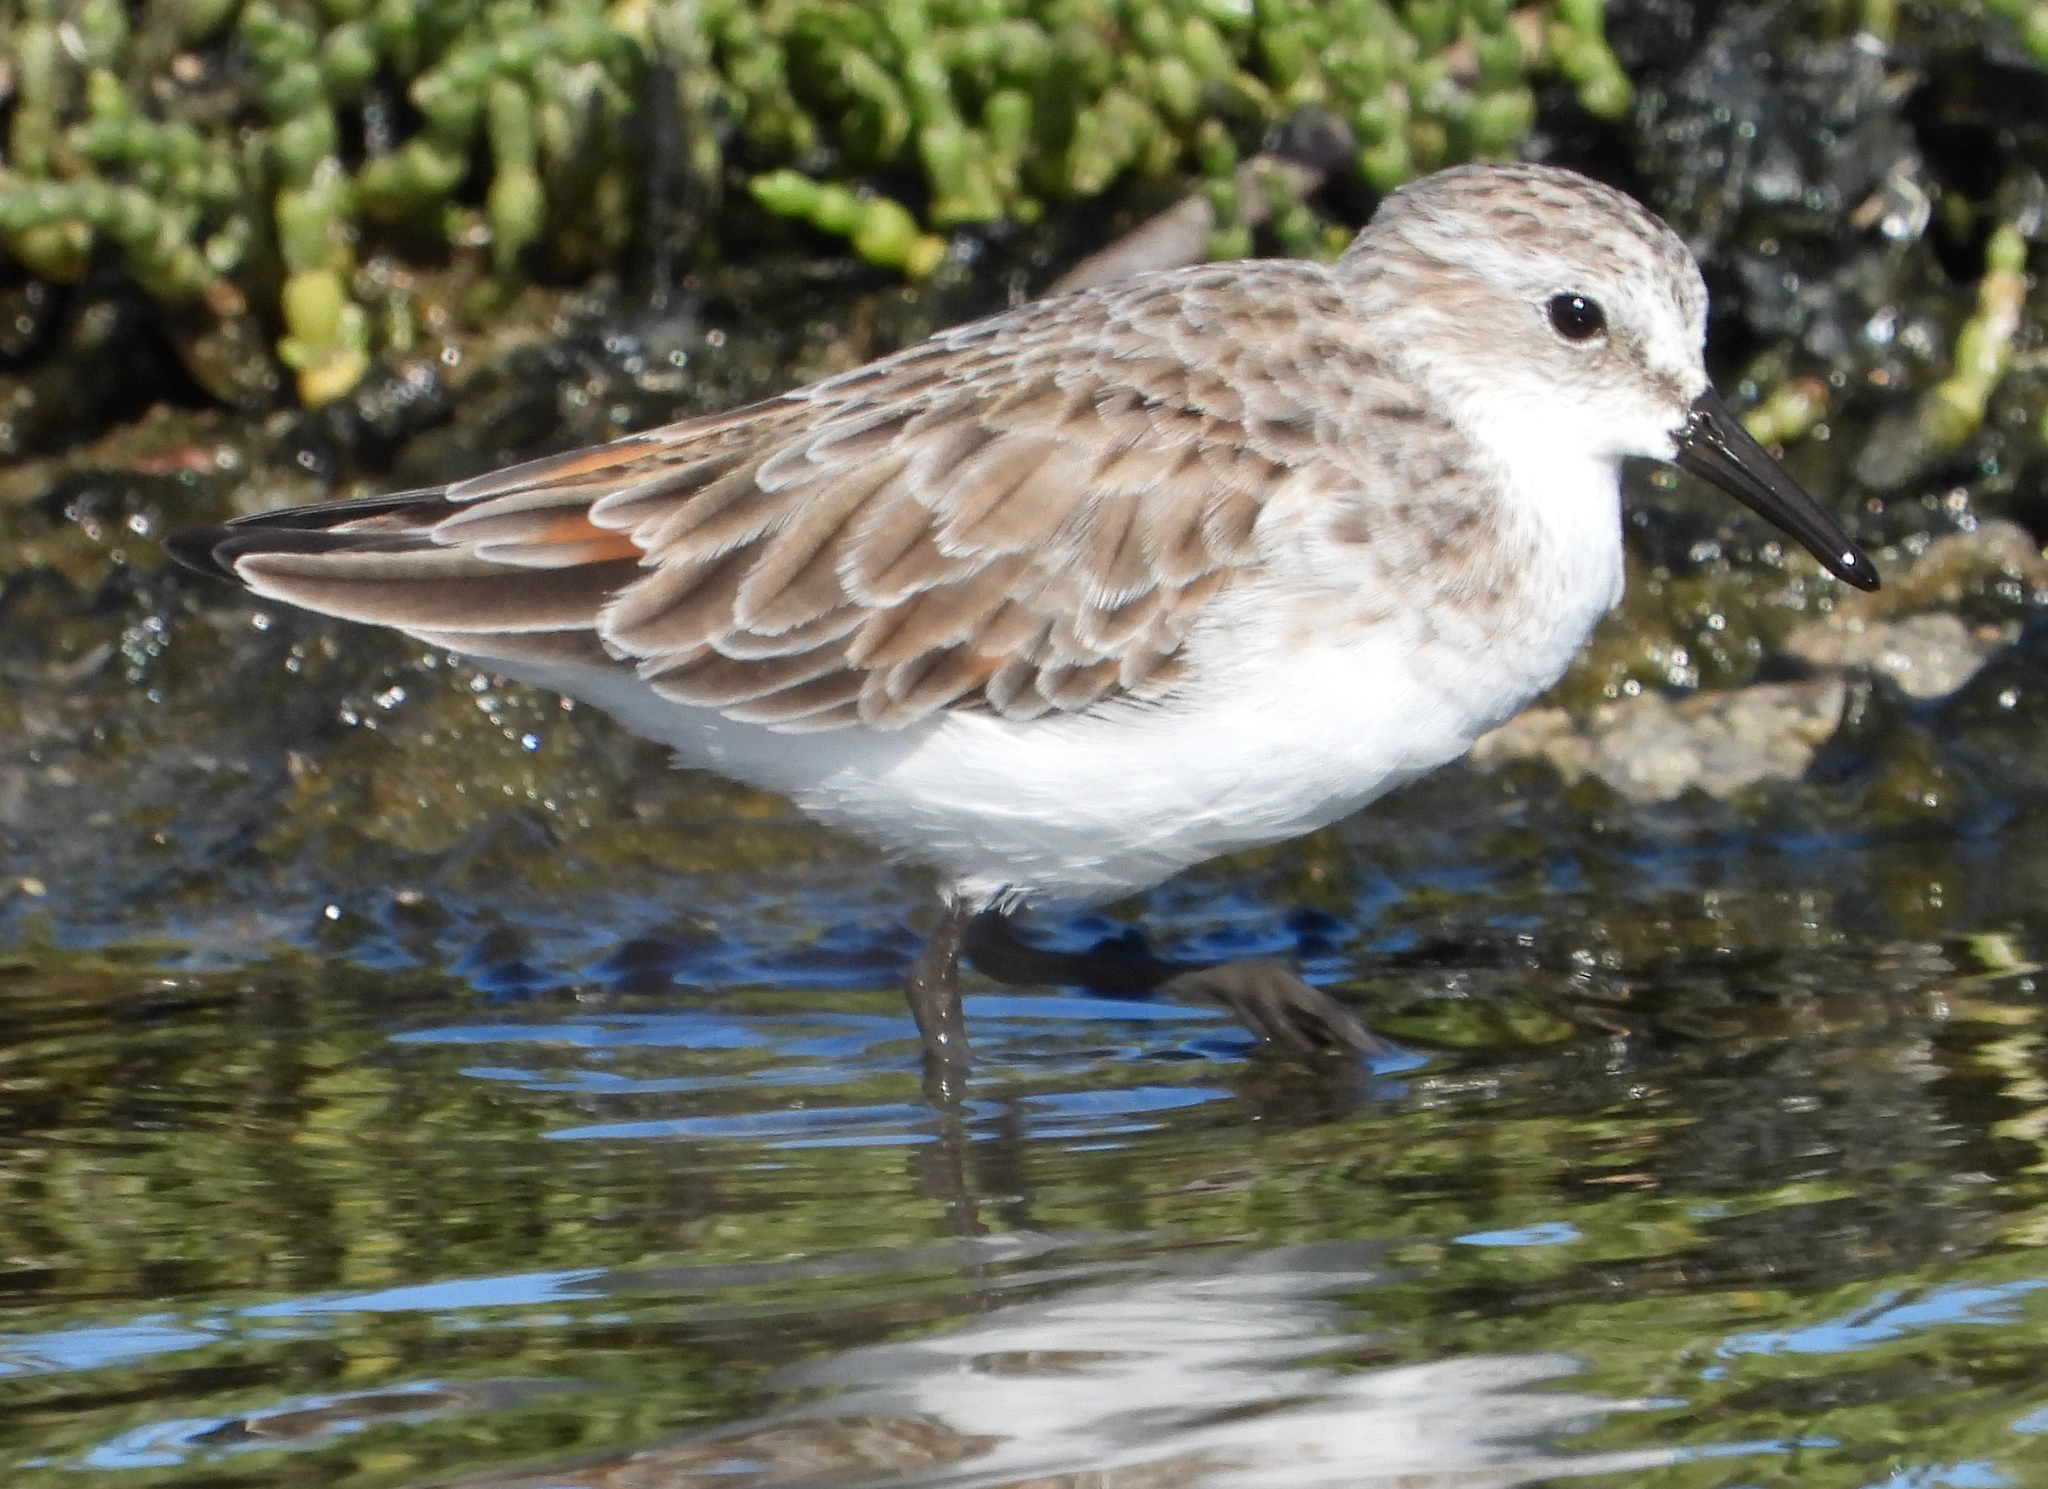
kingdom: Animalia
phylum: Chordata
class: Aves
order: Charadriiformes
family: Scolopacidae
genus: Calidris
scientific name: Calidris minuta
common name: Little stint
